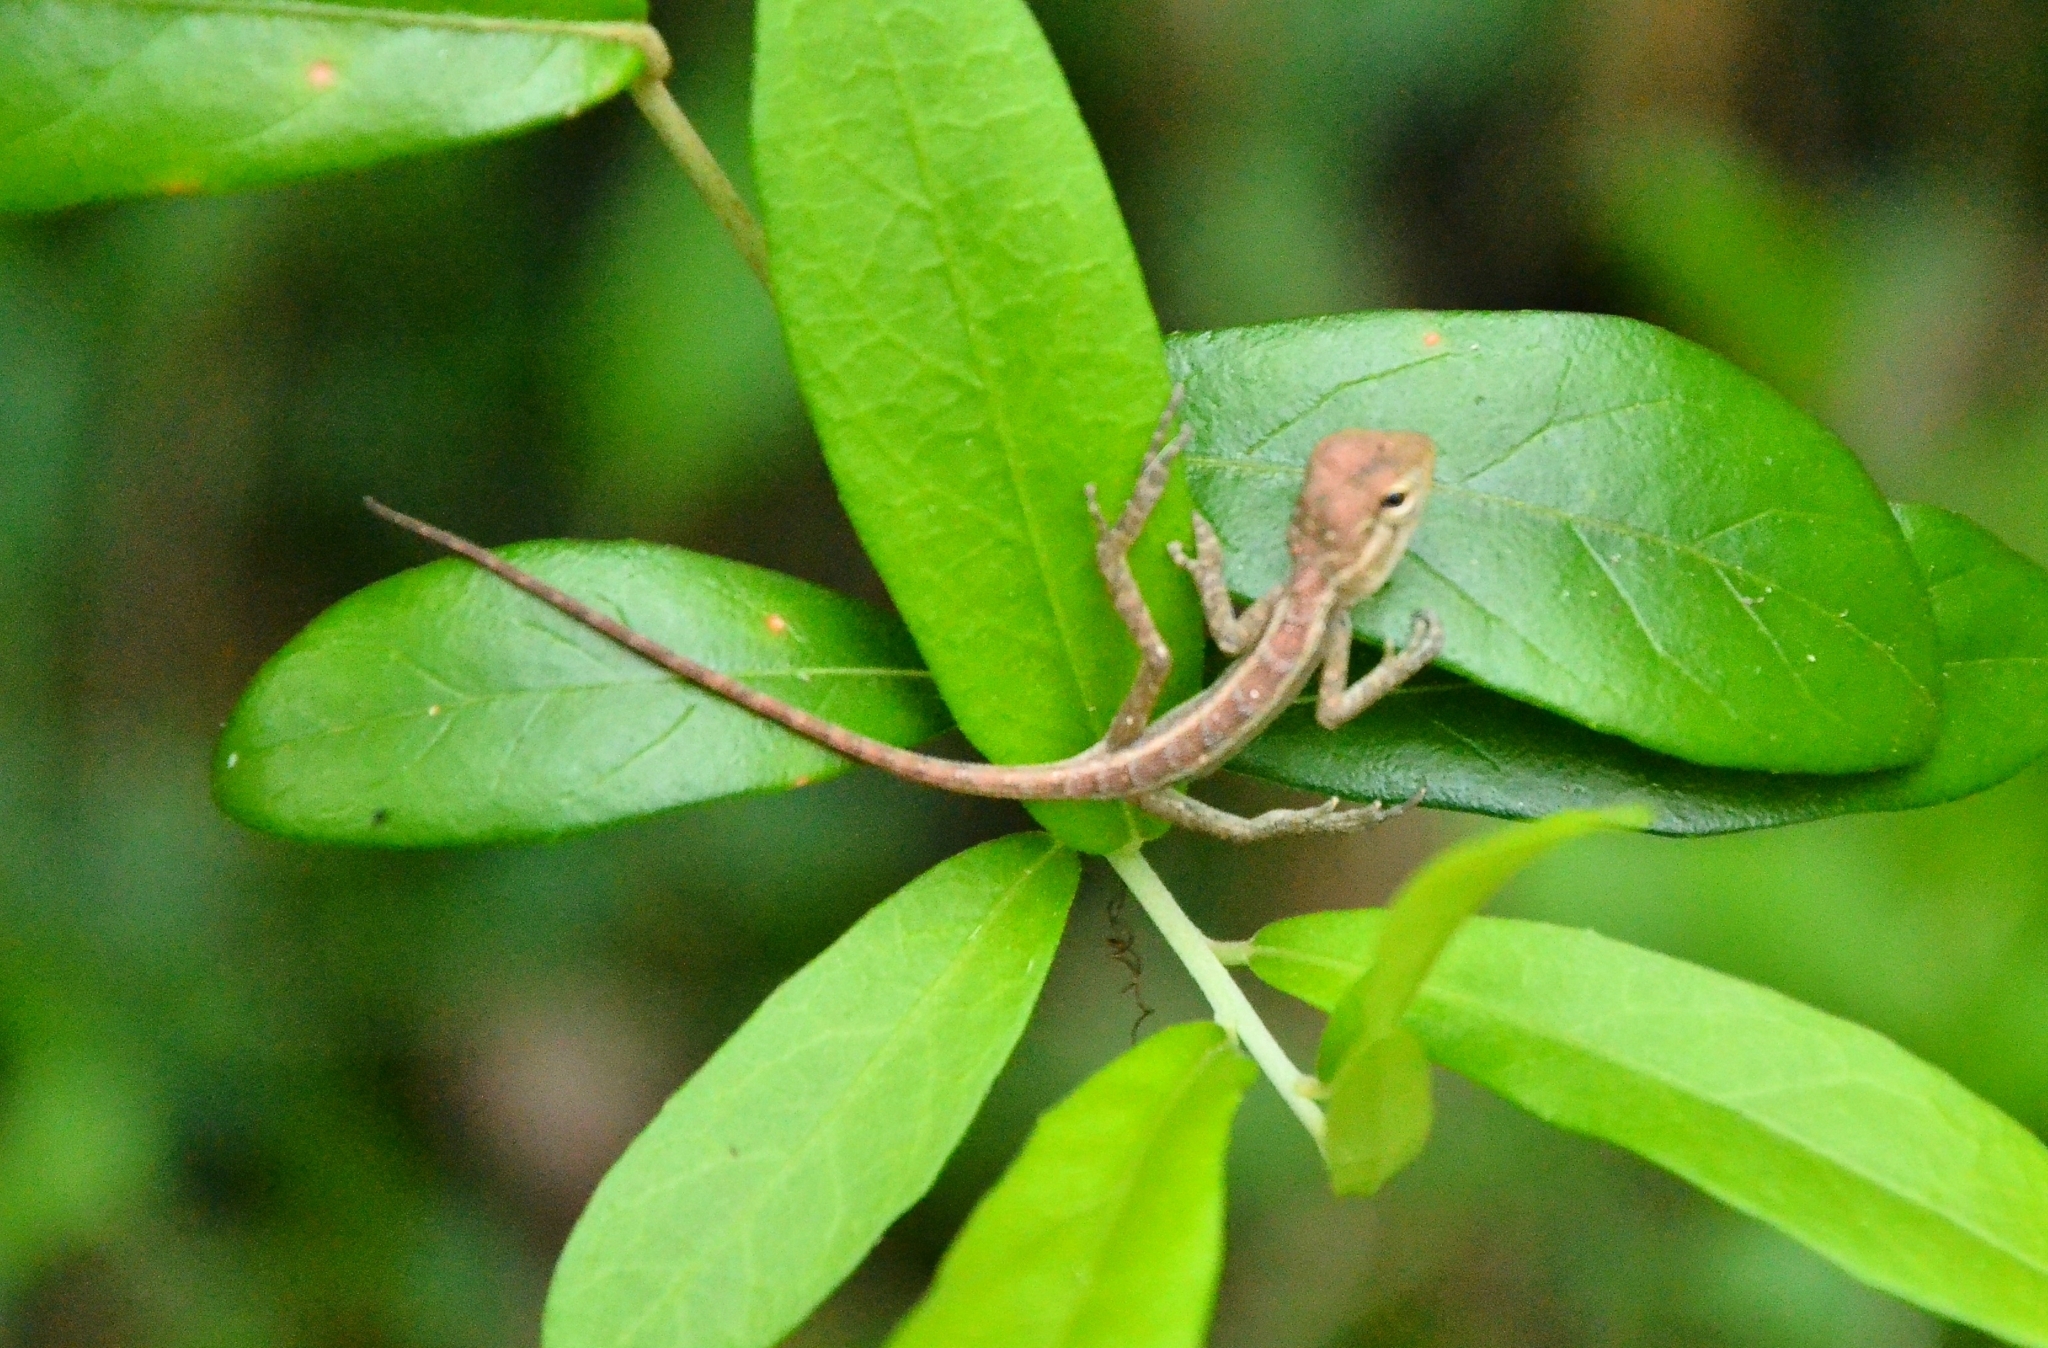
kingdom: Animalia
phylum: Chordata
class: Squamata
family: Agamidae
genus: Calotes
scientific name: Calotes versicolor
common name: Oriental garden lizard
